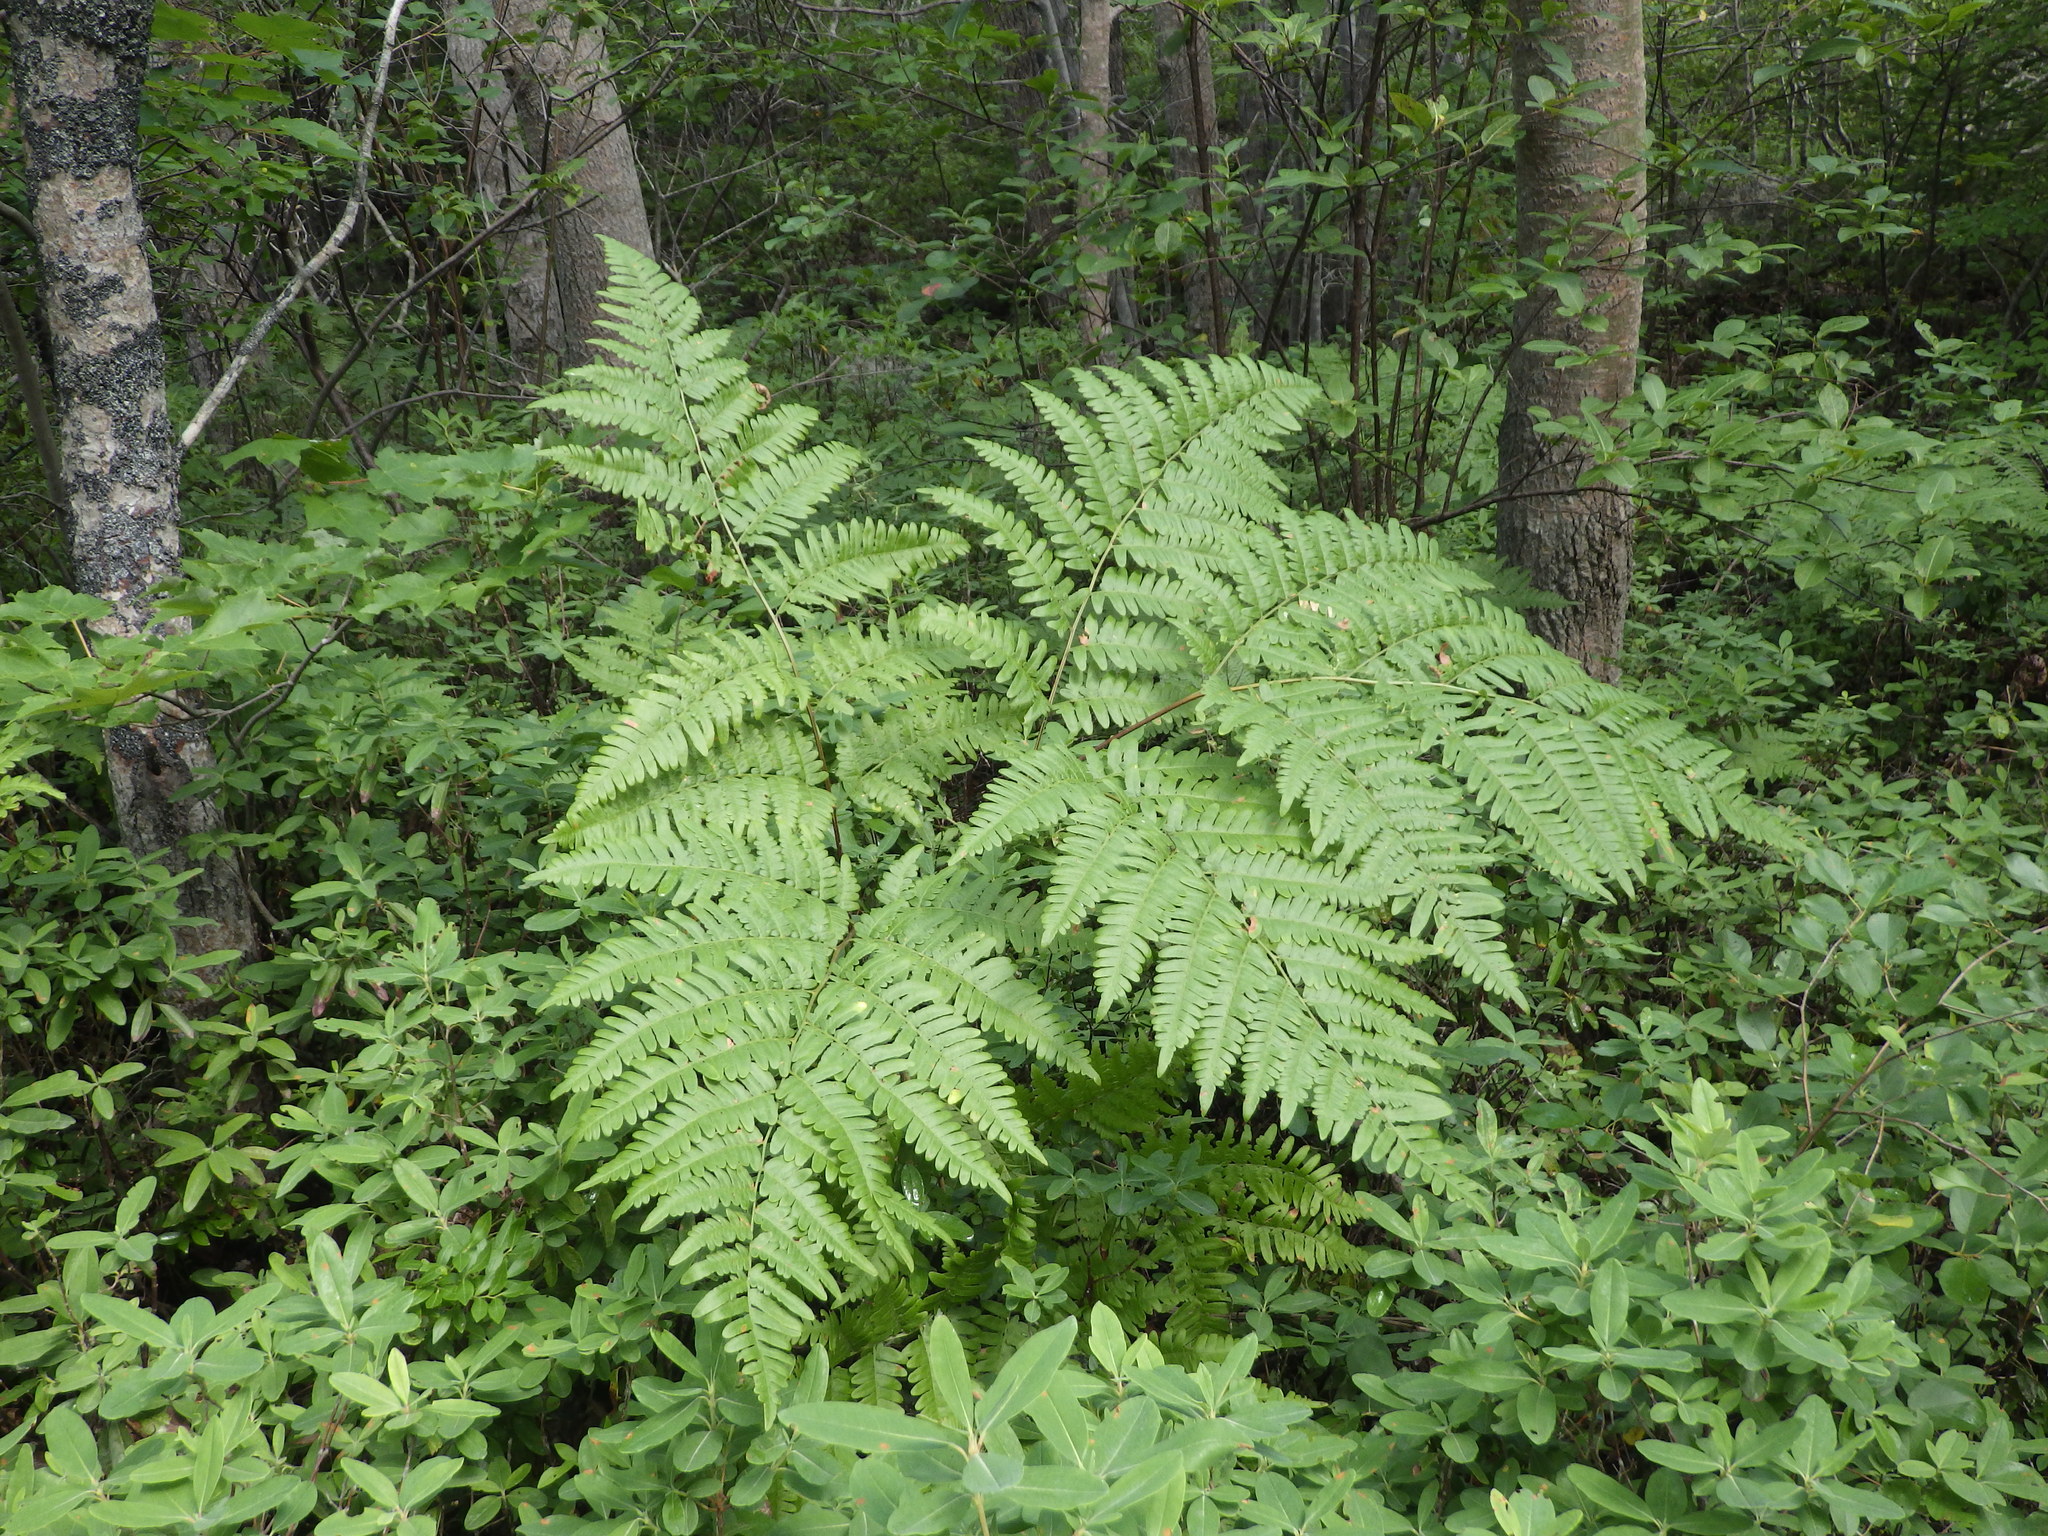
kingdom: Plantae
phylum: Tracheophyta
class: Polypodiopsida
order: Polypodiales
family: Dennstaedtiaceae
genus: Pteridium
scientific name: Pteridium aquilinum
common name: Bracken
